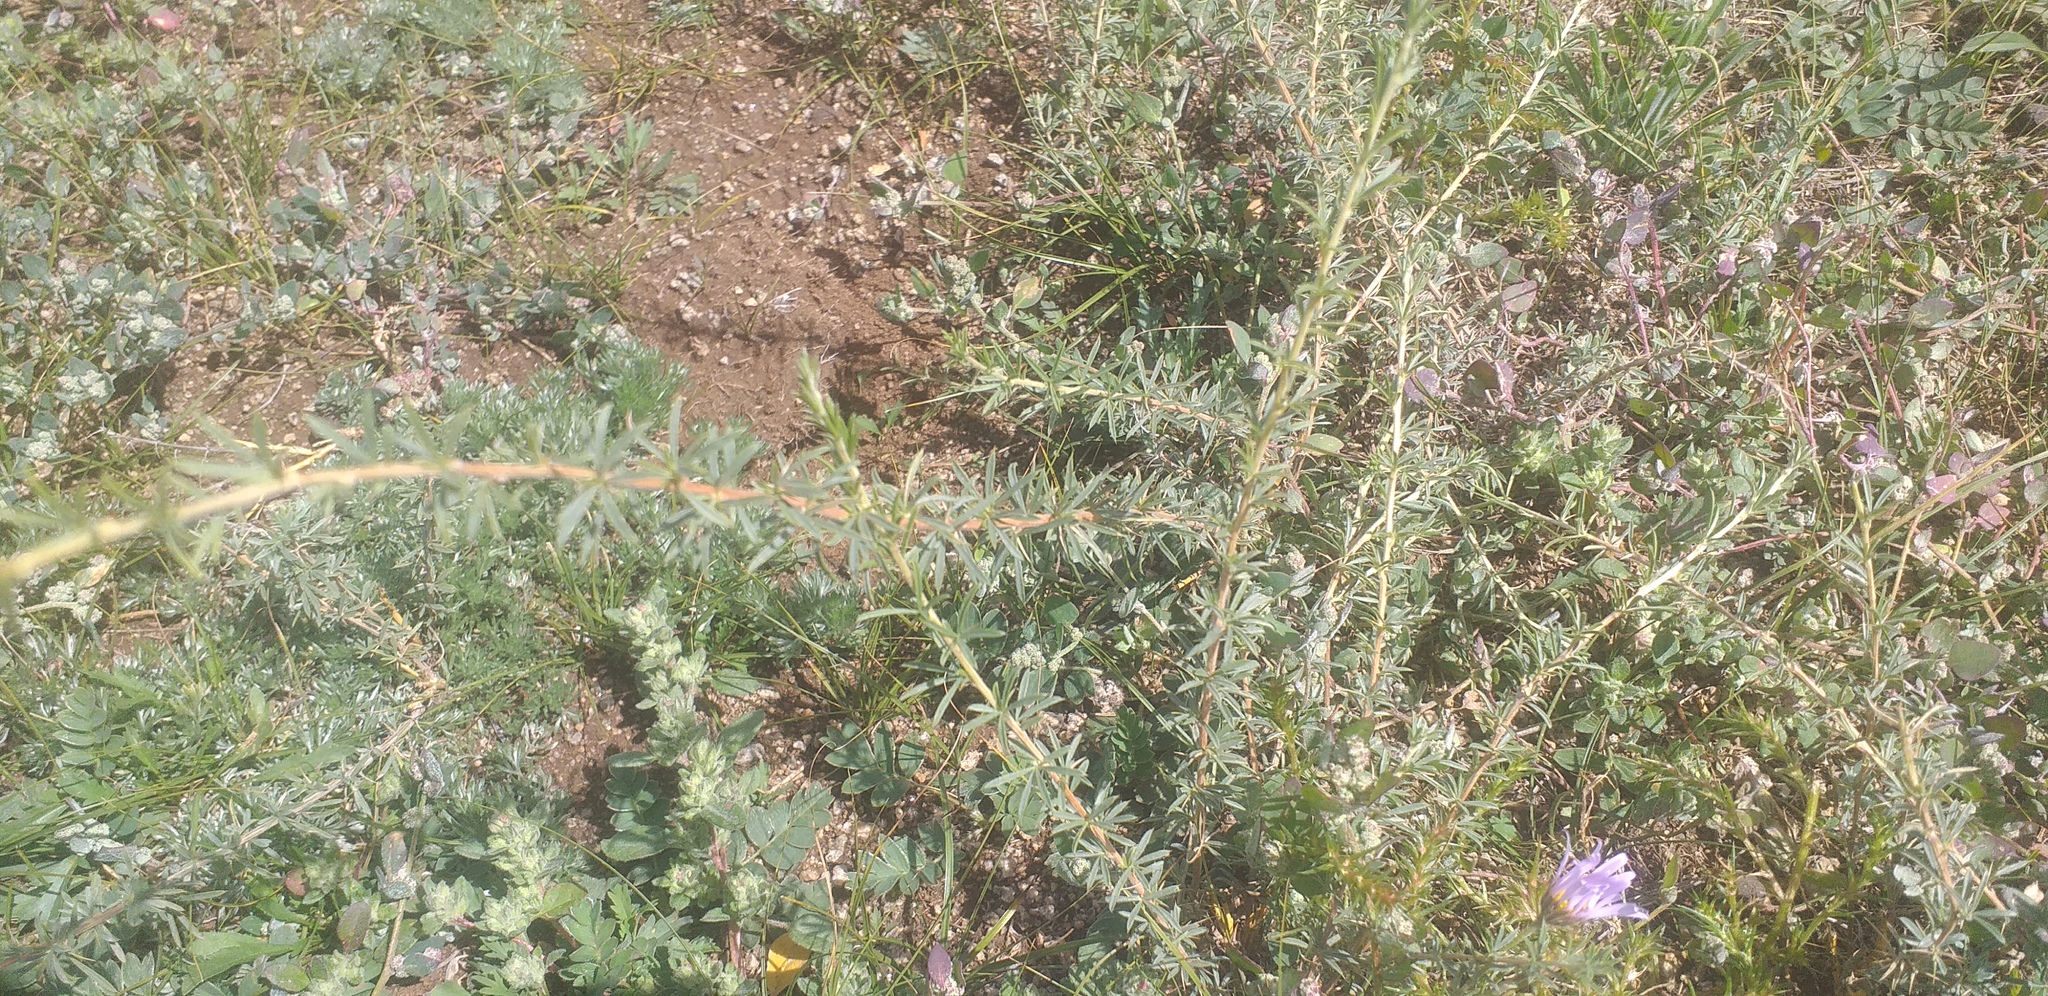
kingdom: Plantae
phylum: Tracheophyta
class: Magnoliopsida
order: Fabales
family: Fabaceae
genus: Caragana
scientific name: Caragana stenophylla
